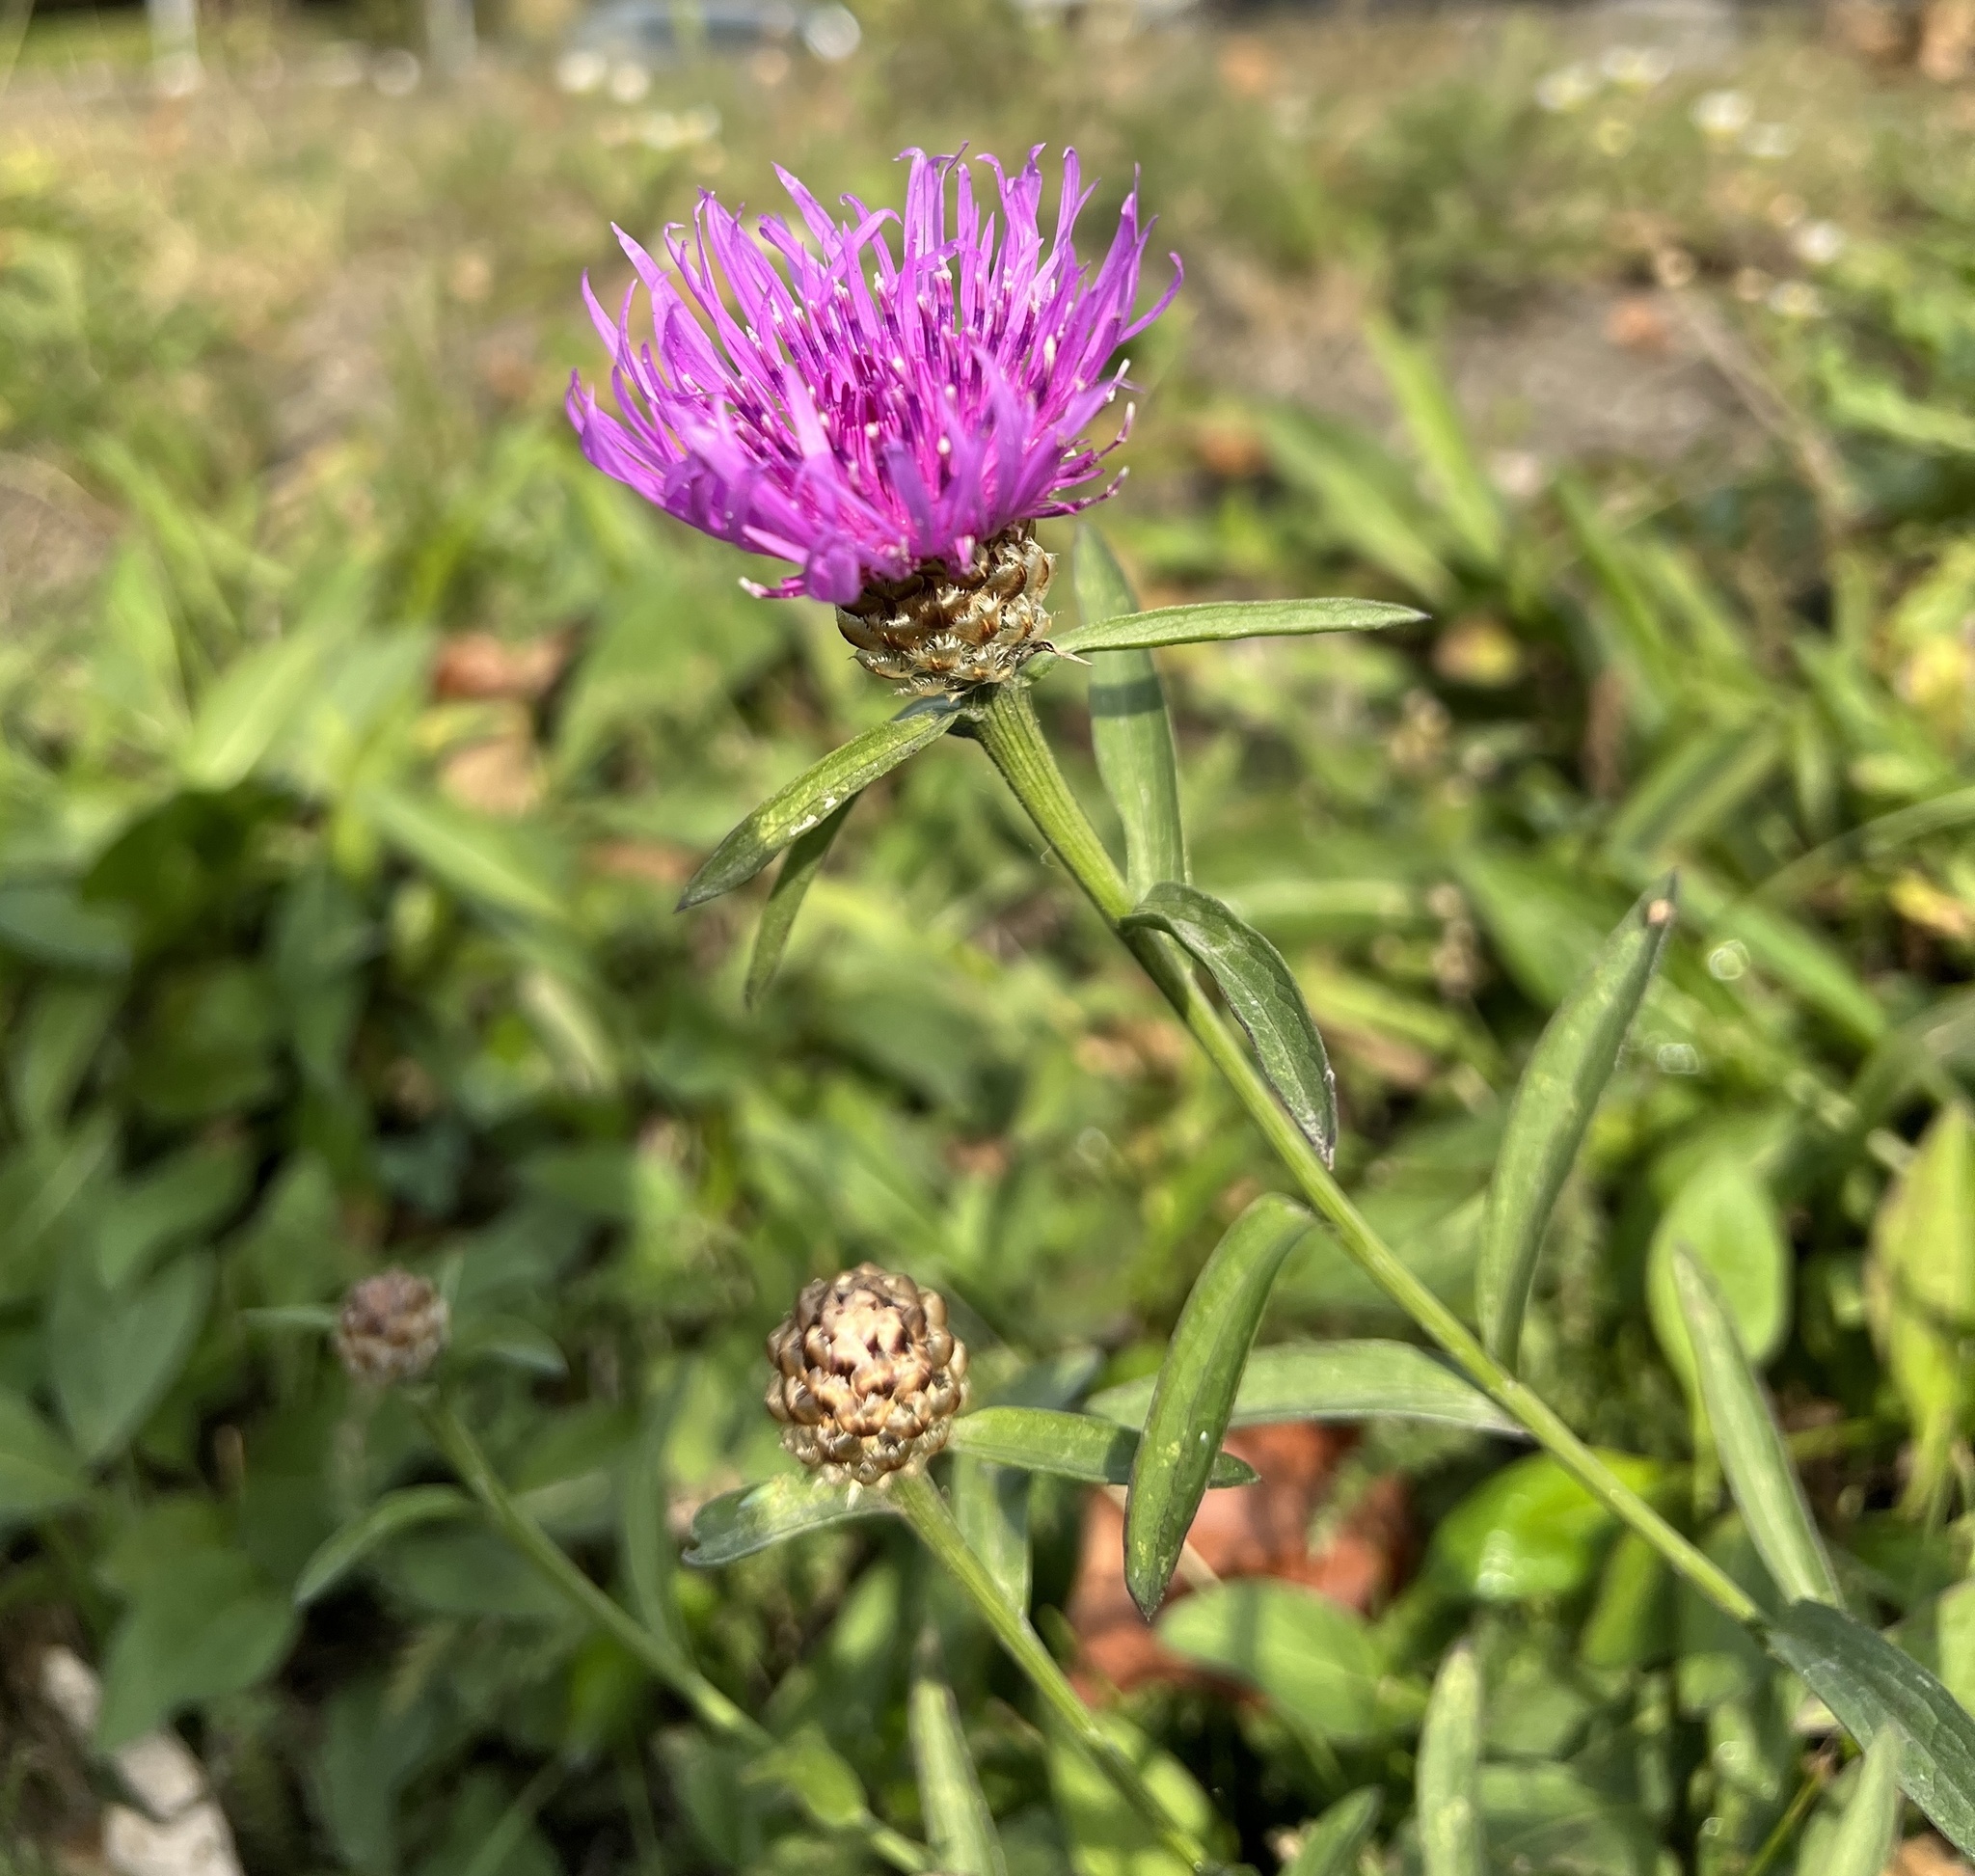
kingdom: Plantae
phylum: Tracheophyta
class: Magnoliopsida
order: Asterales
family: Asteraceae
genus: Centaurea
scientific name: Centaurea jacea
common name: Brown knapweed
